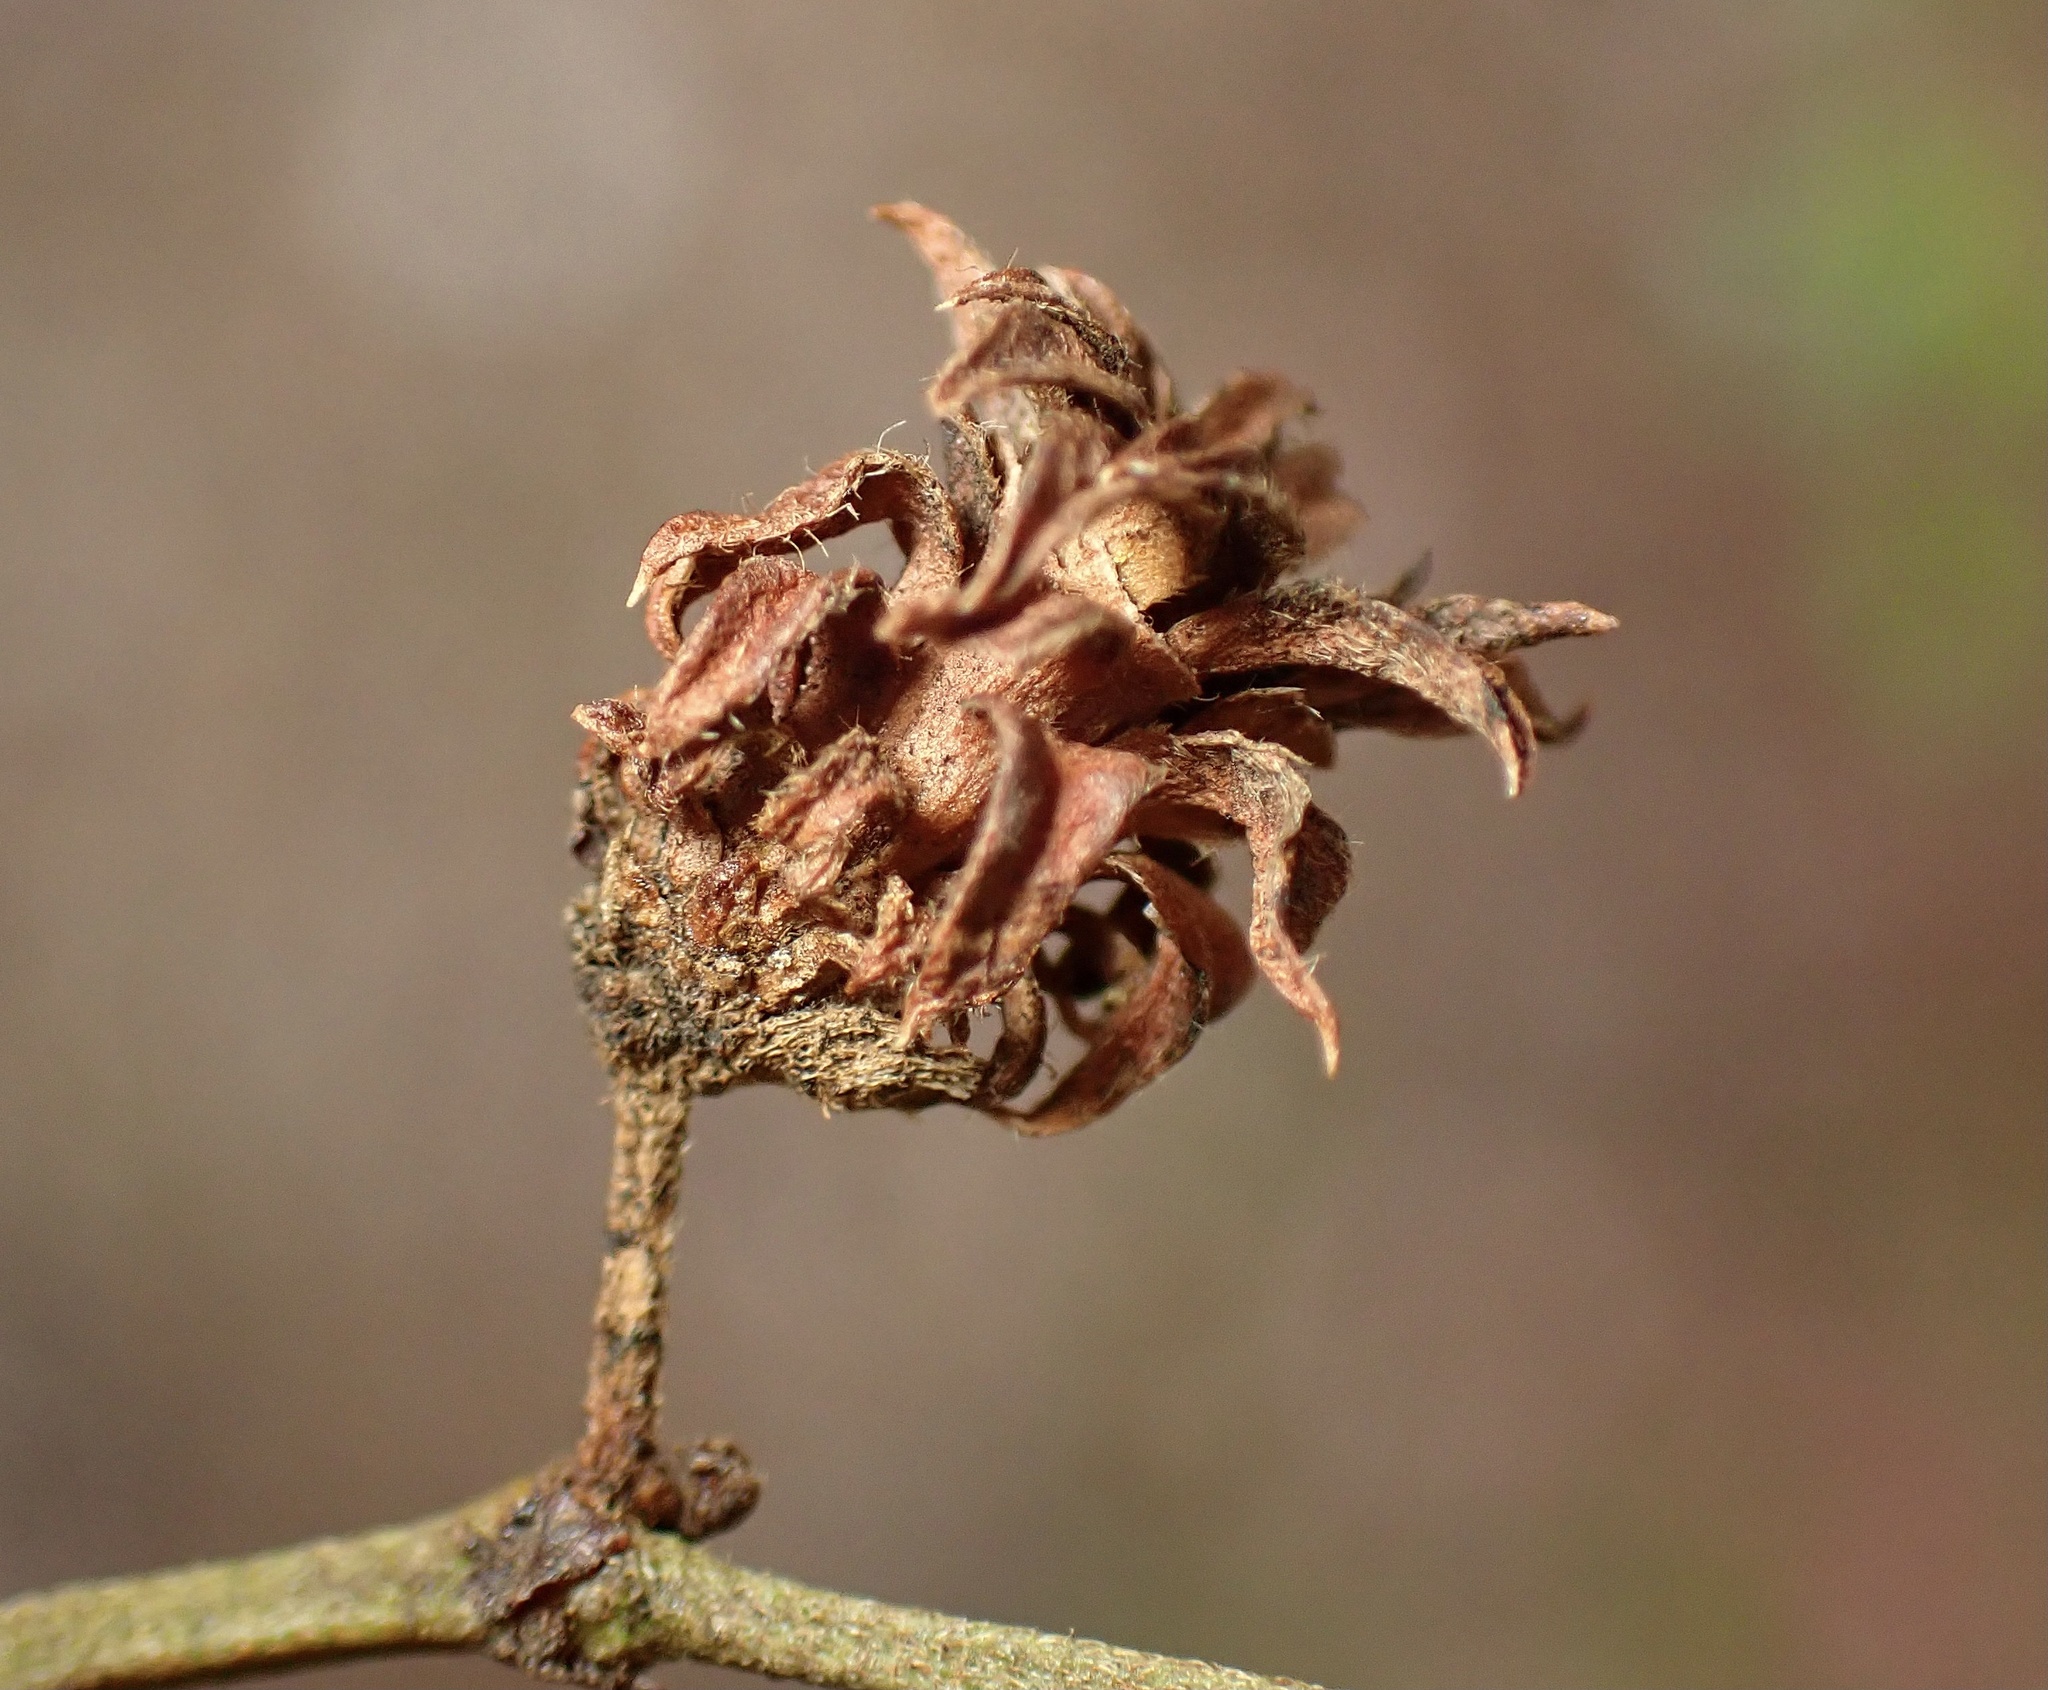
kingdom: Animalia
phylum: Arthropoda
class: Insecta
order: Diptera
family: Cecidomyiidae
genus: Asphondylia
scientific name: Asphondylia rosetta
